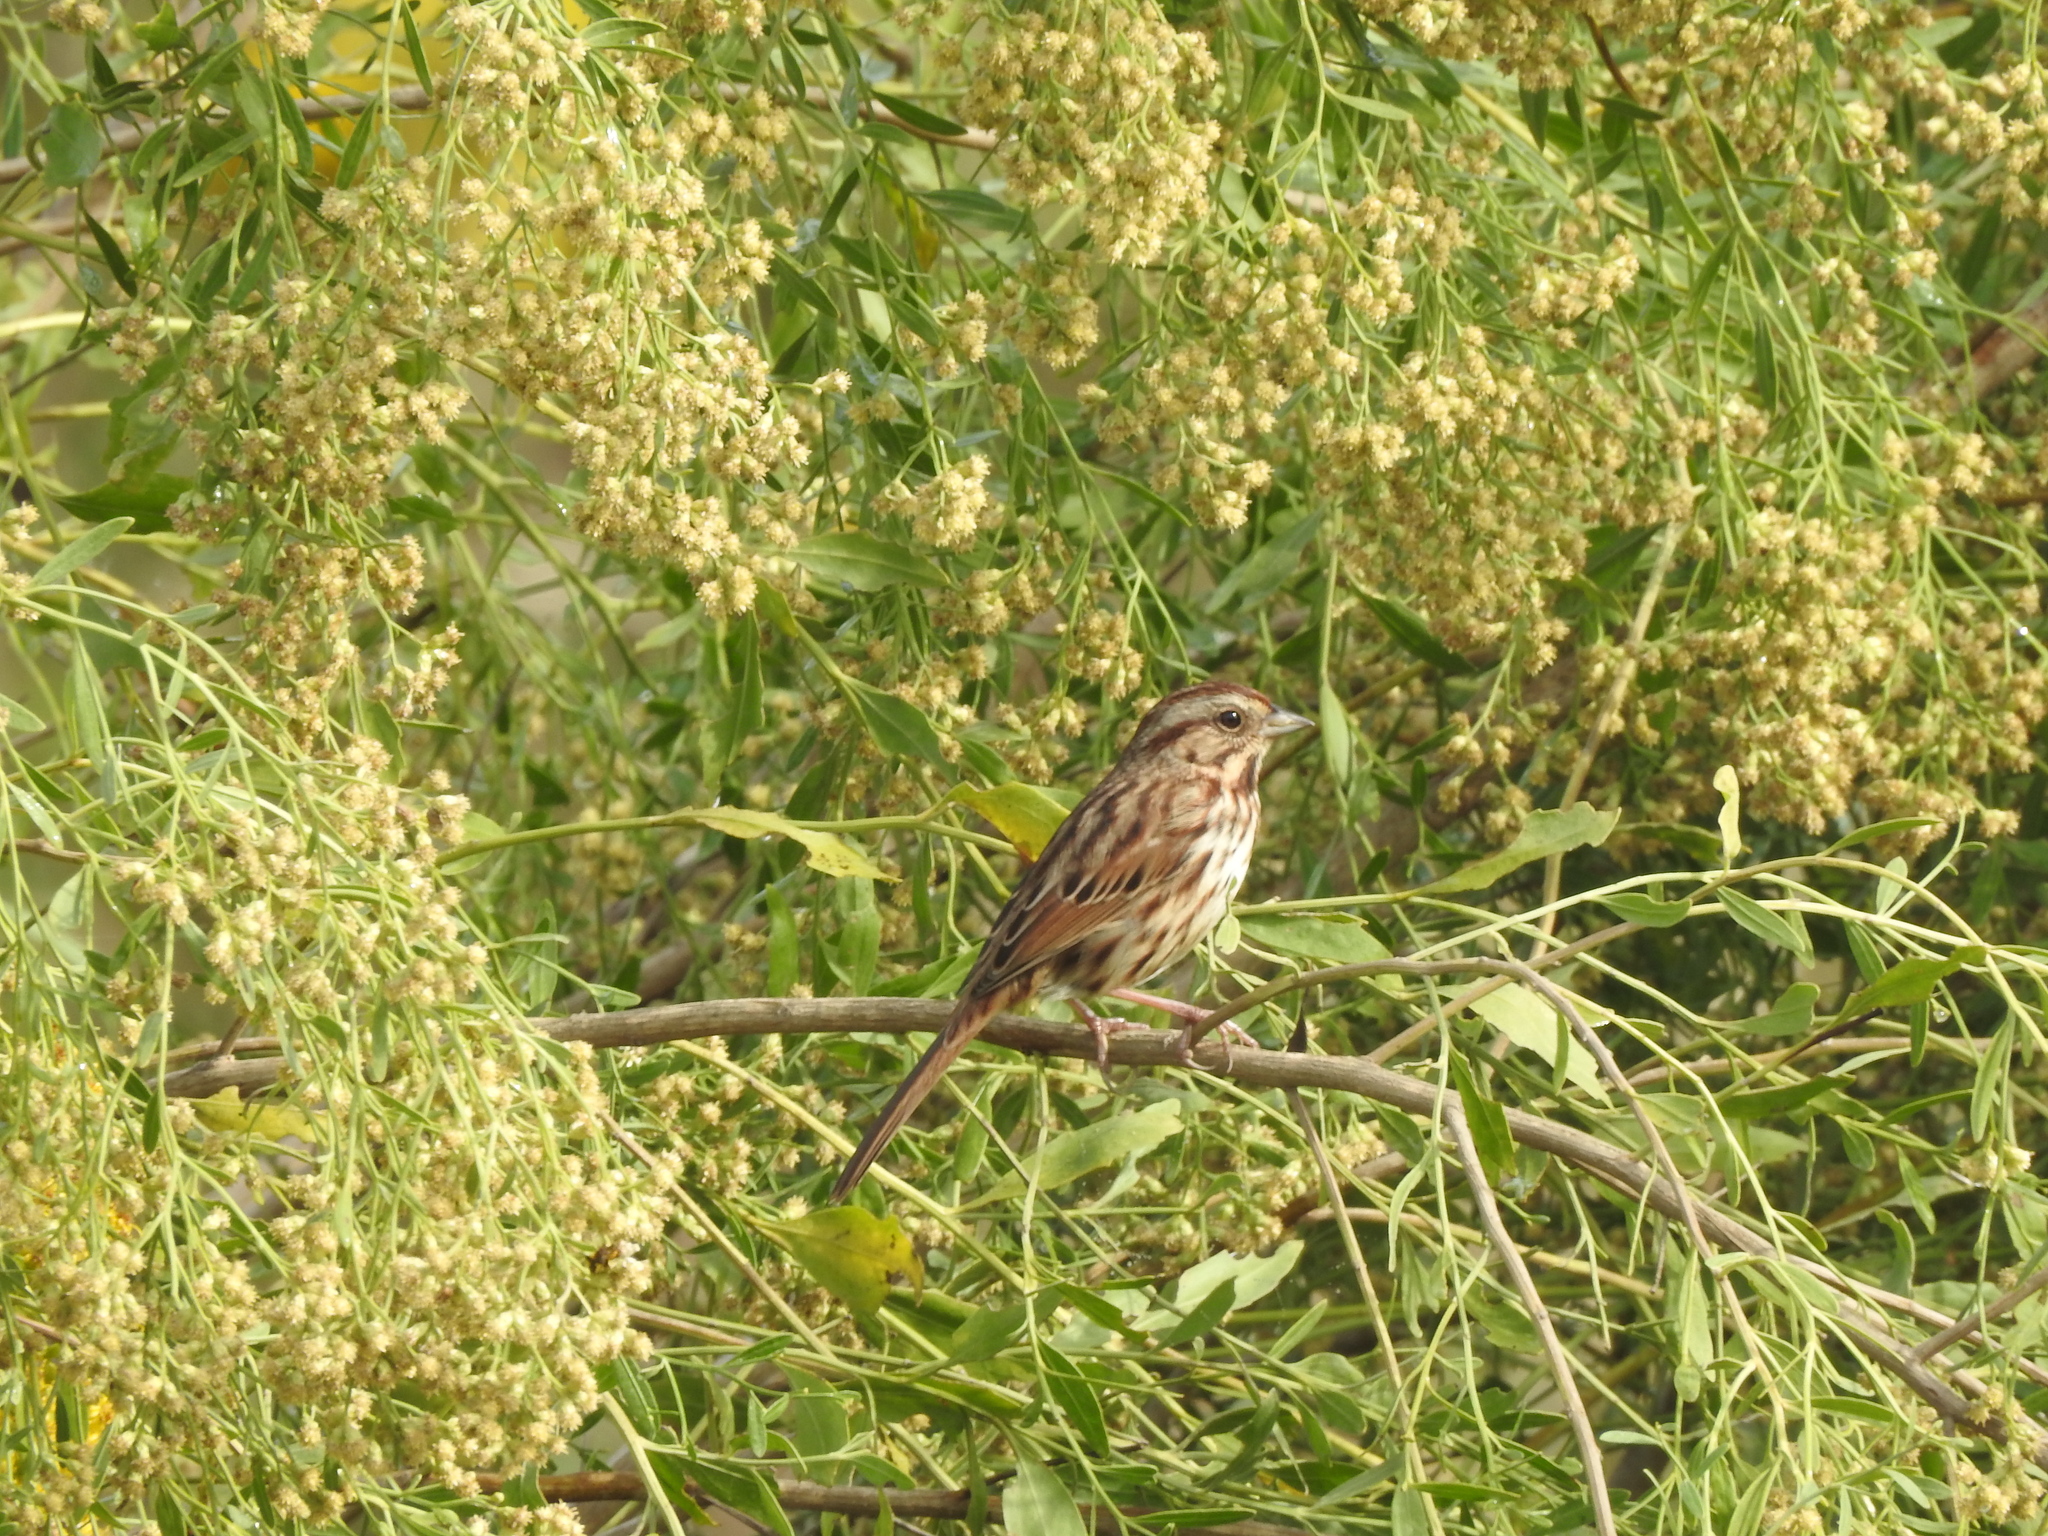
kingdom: Animalia
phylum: Chordata
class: Aves
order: Passeriformes
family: Passerellidae
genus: Melospiza
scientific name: Melospiza melodia
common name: Song sparrow
